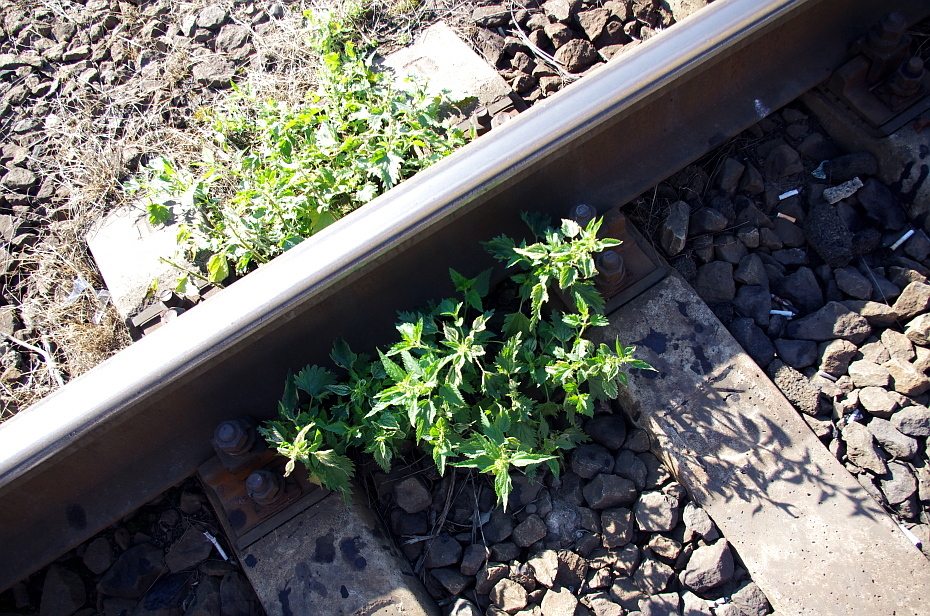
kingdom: Plantae
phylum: Tracheophyta
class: Magnoliopsida
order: Rosales
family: Urticaceae
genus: Urtica
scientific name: Urtica dioica
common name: Common nettle
